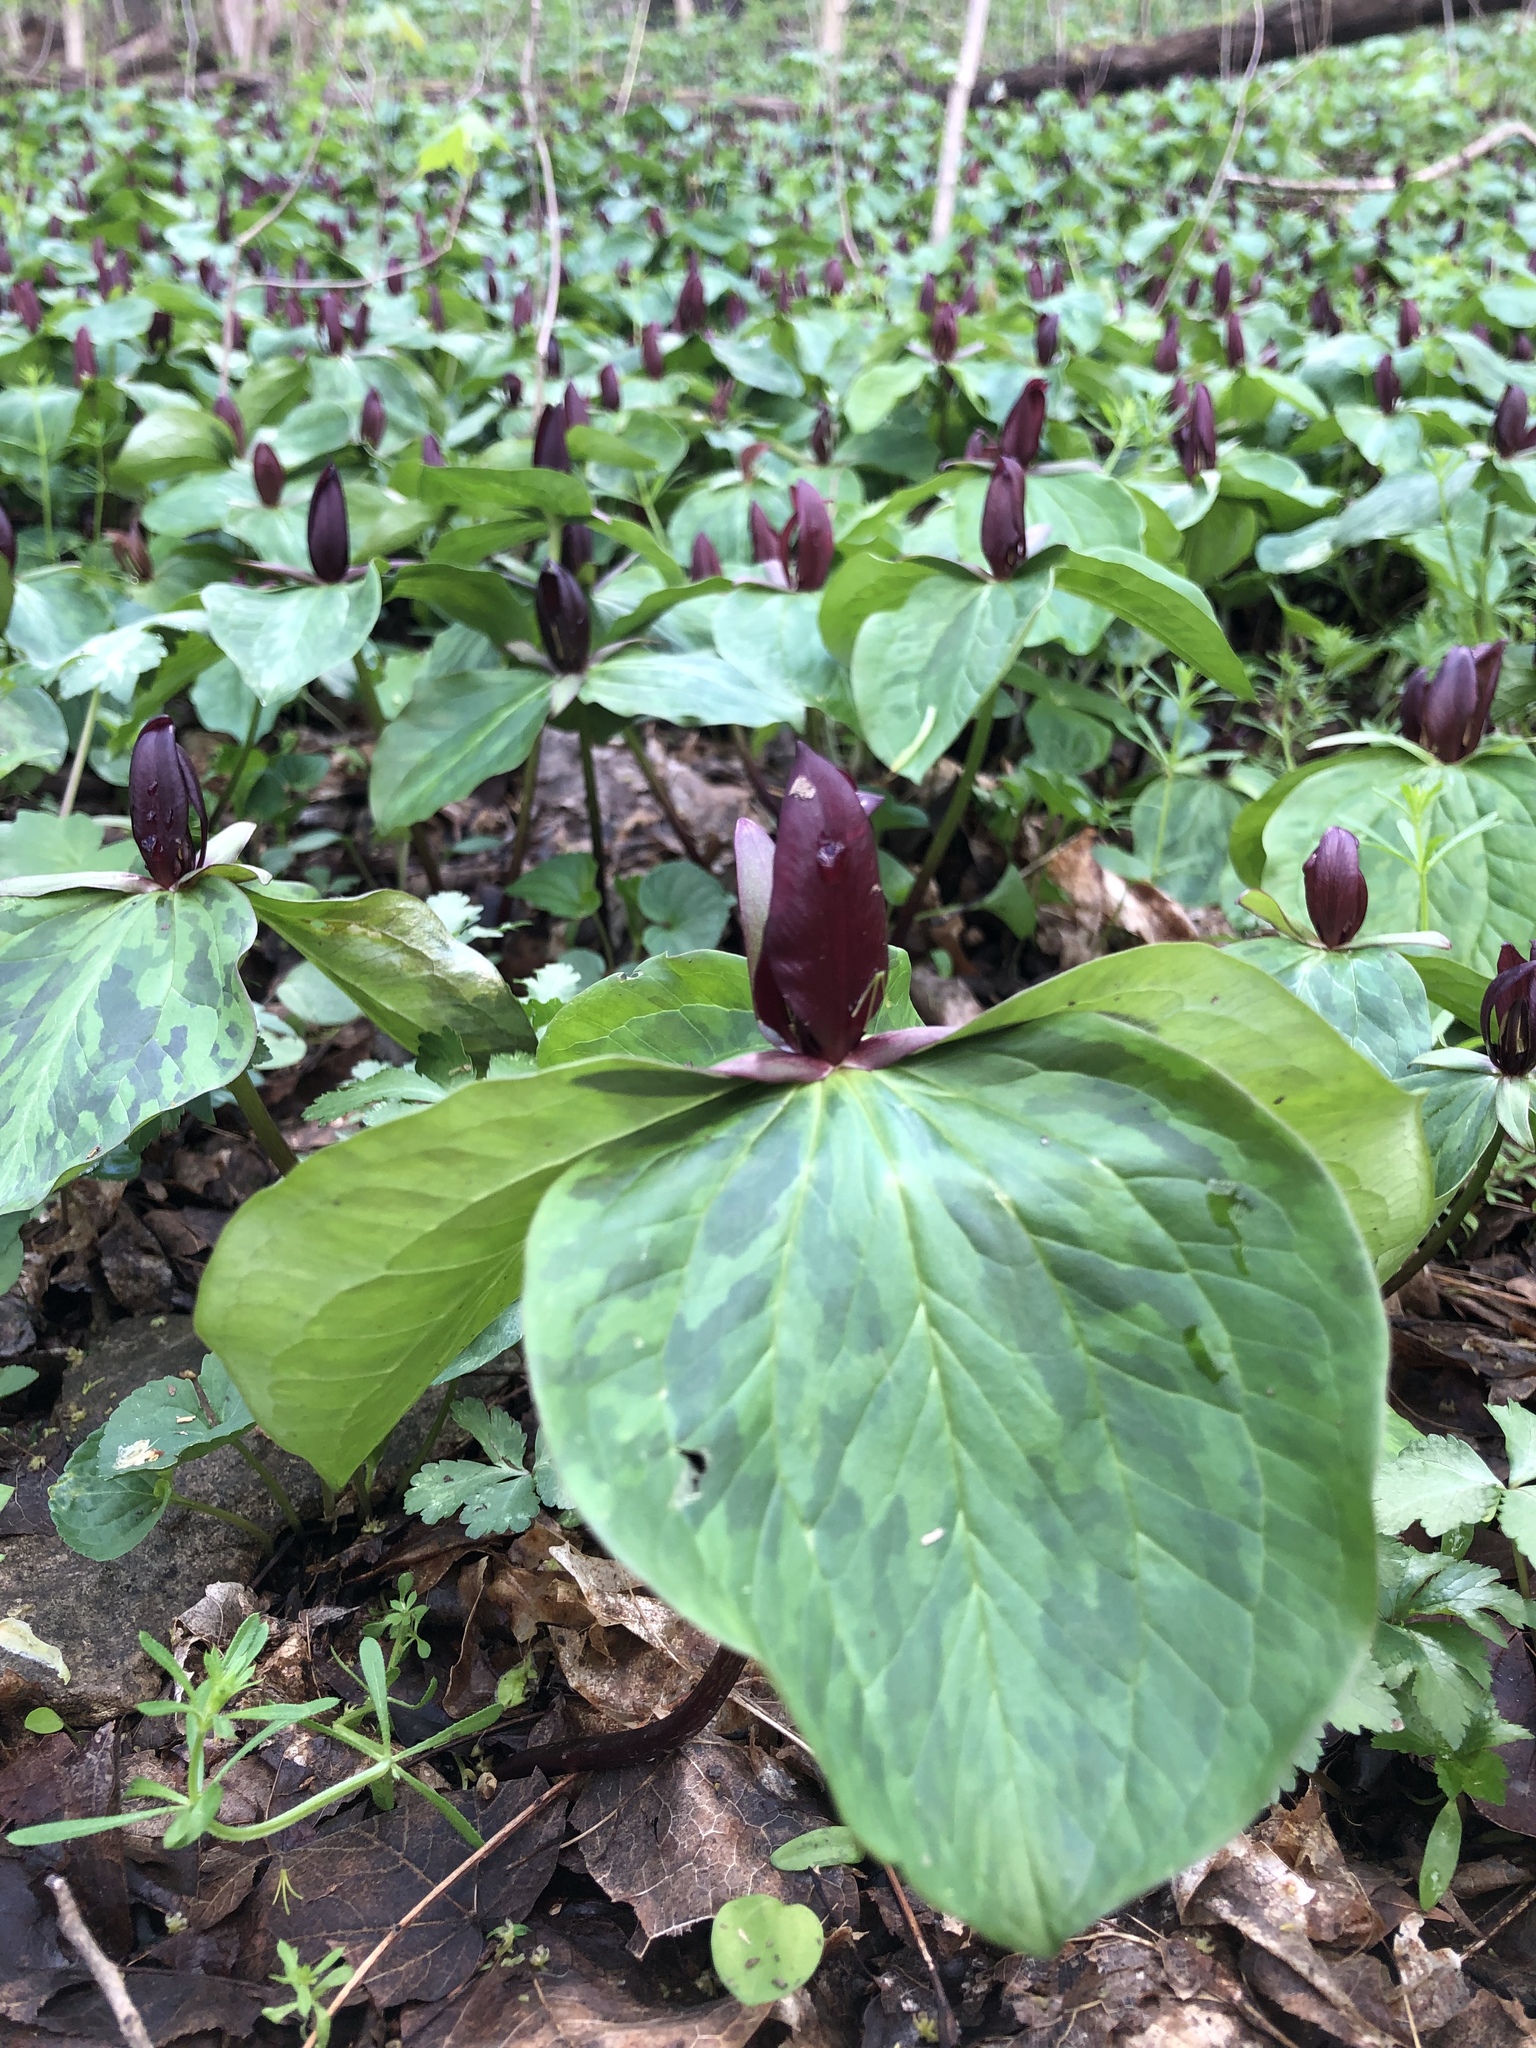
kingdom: Plantae
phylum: Tracheophyta
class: Liliopsida
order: Liliales
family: Melanthiaceae
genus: Trillium
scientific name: Trillium sessile
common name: Sessile trillium
